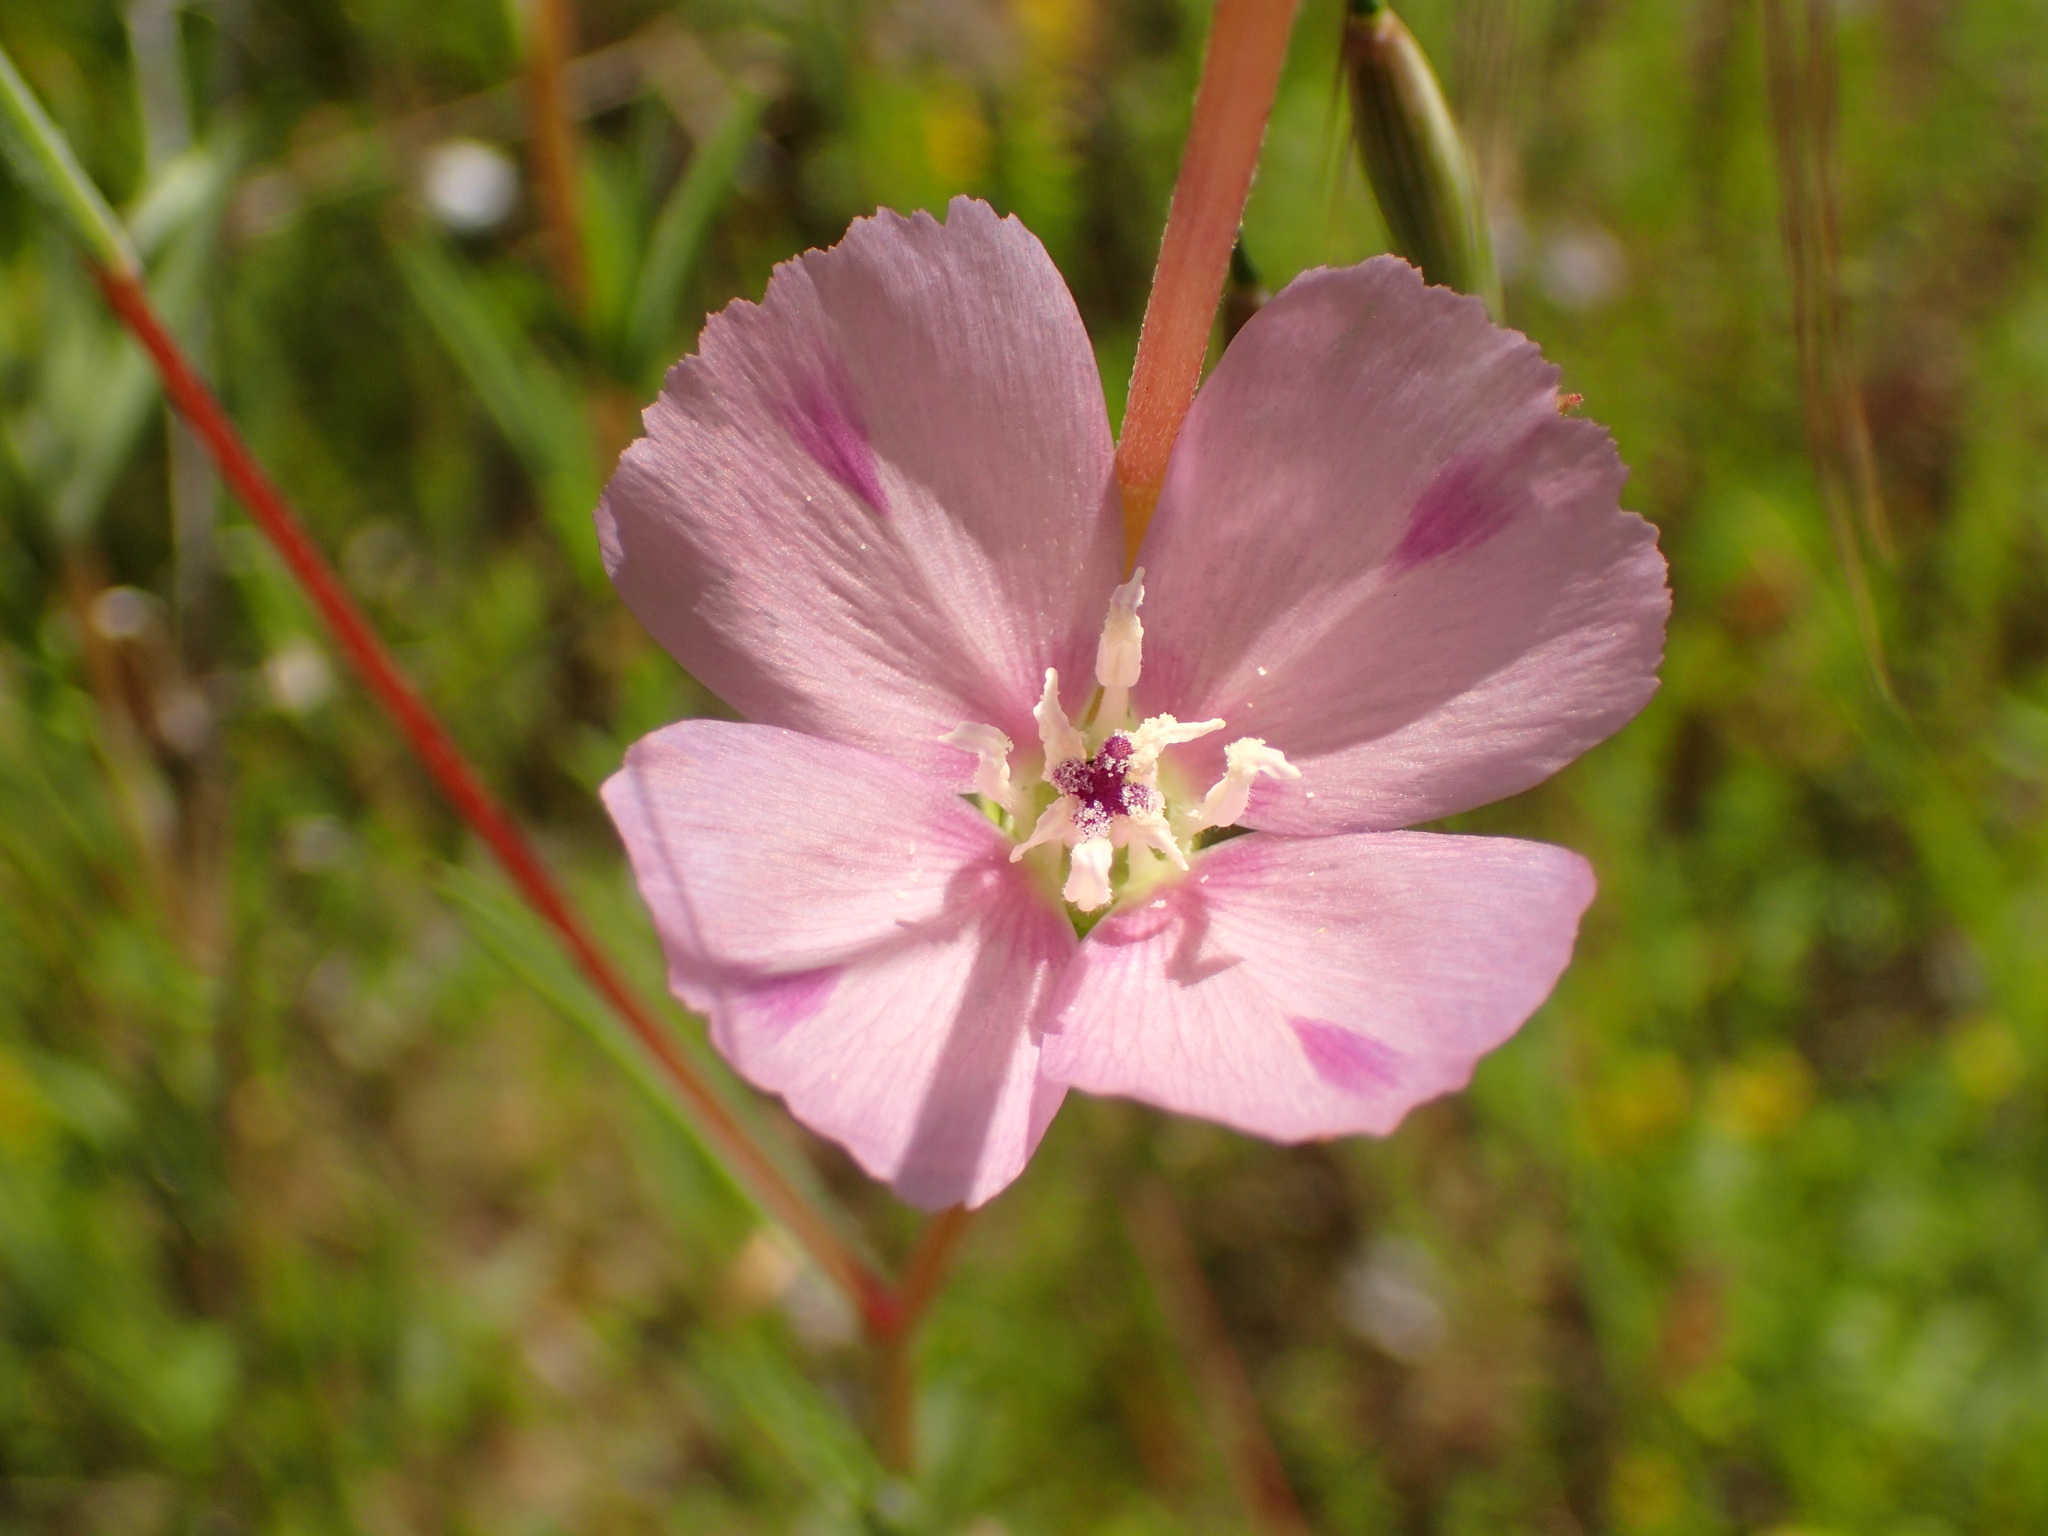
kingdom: Plantae
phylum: Tracheophyta
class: Magnoliopsida
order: Myrtales
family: Onagraceae
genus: Clarkia
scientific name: Clarkia purpurea
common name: Purple clarkia
